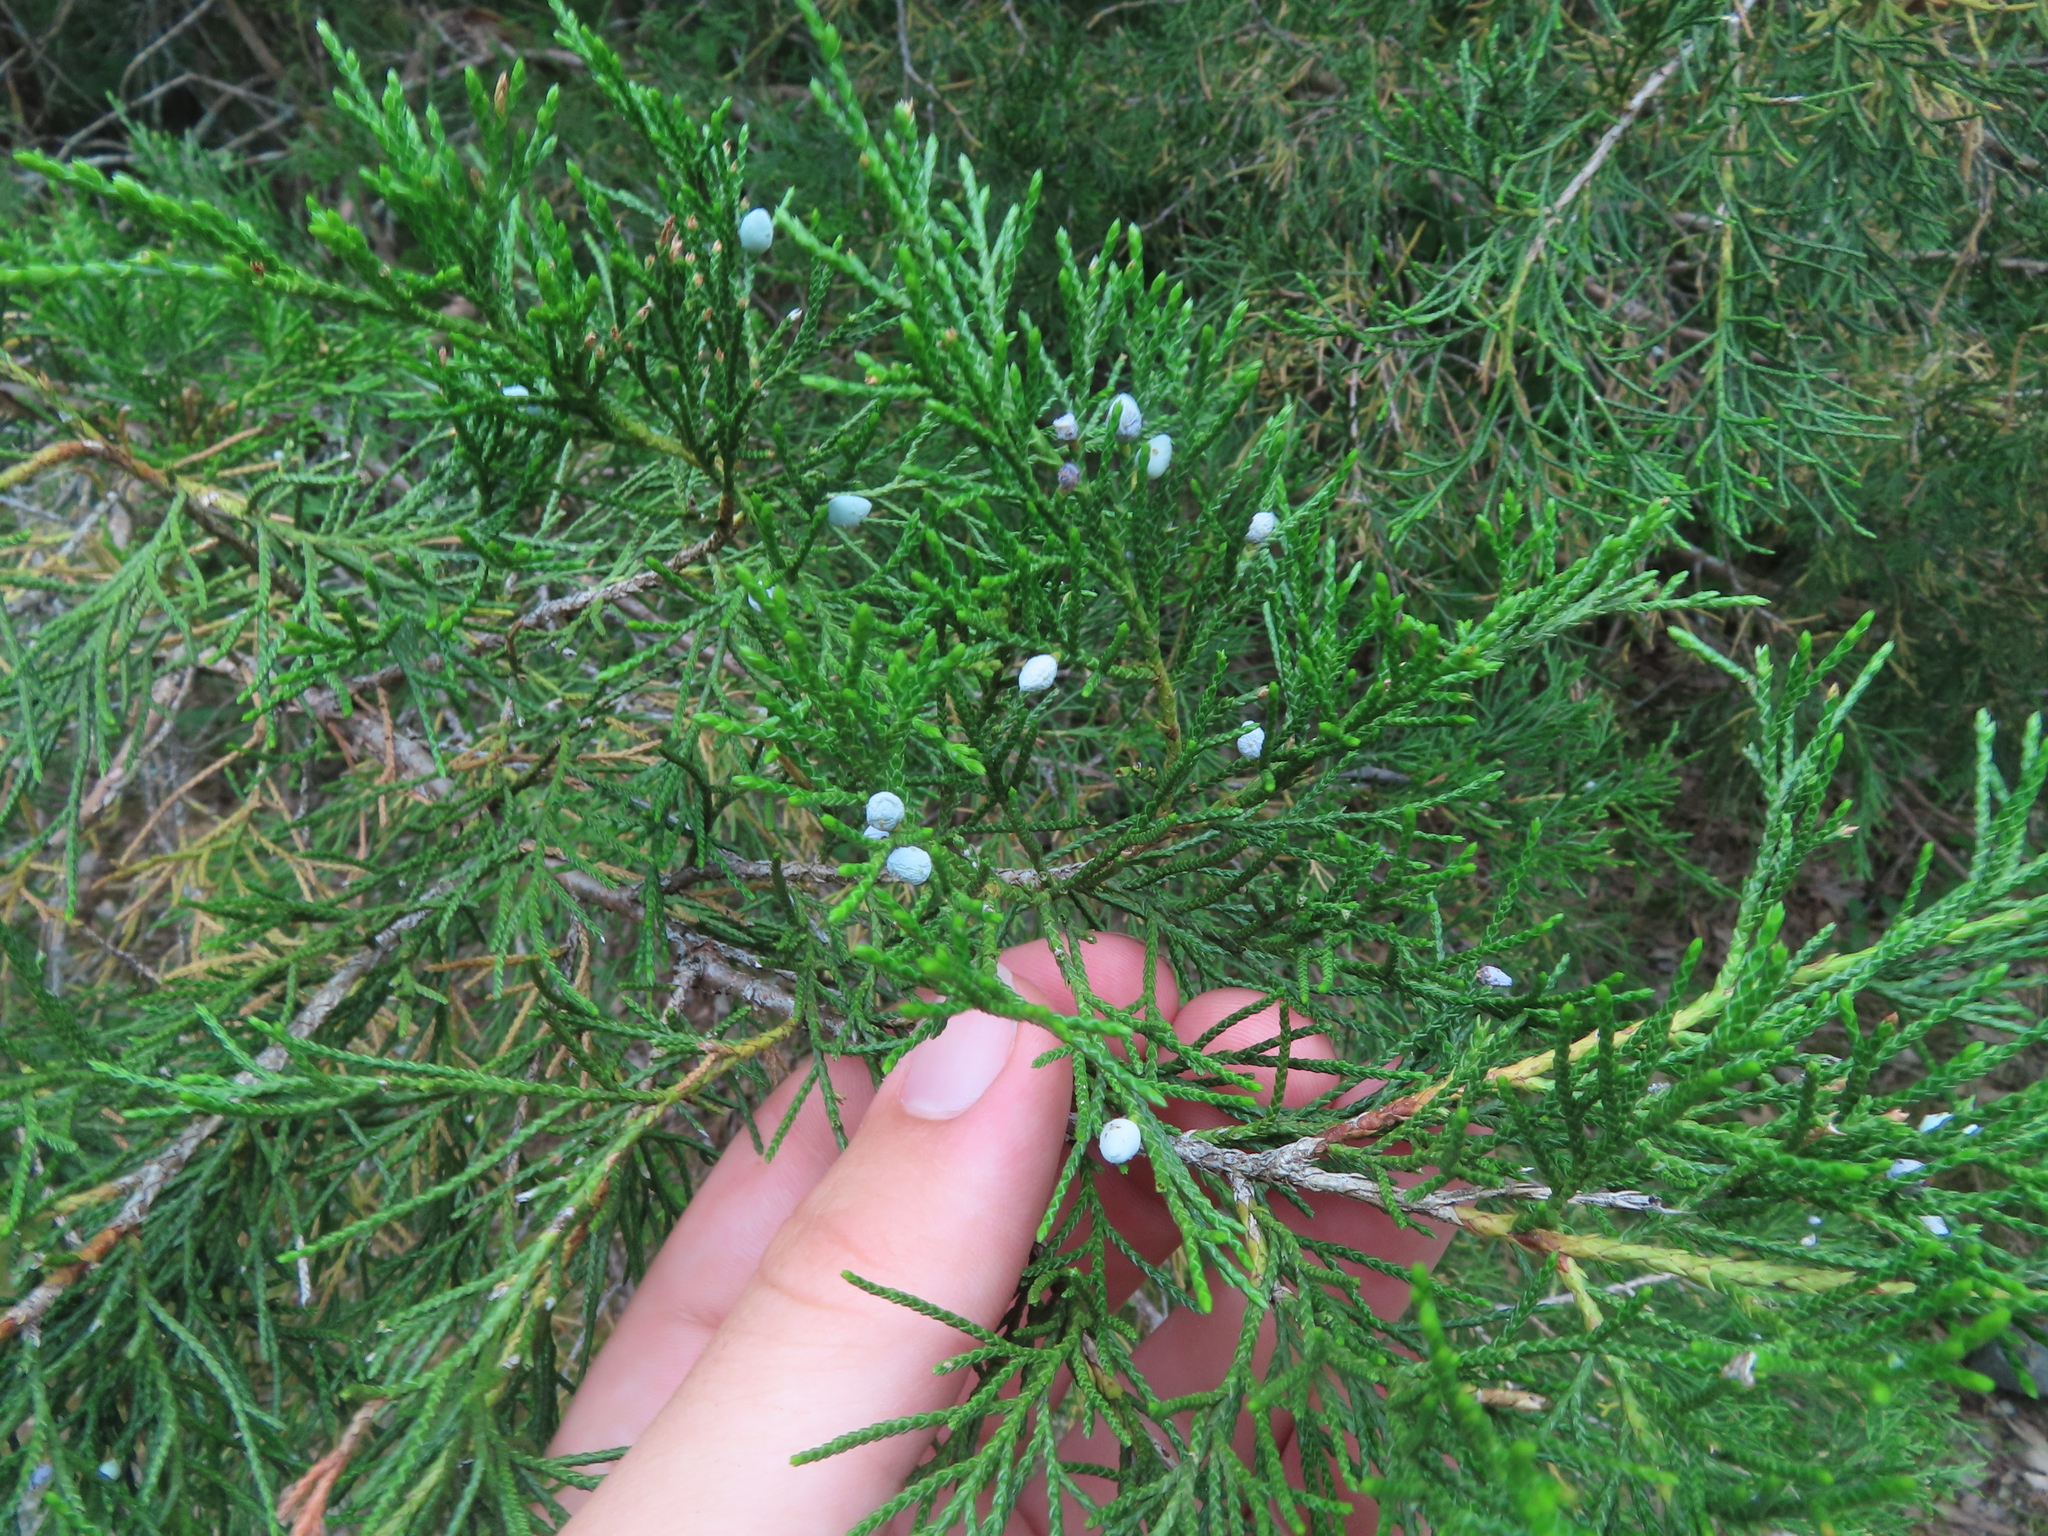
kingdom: Plantae
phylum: Tracheophyta
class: Pinopsida
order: Pinales
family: Cupressaceae
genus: Juniperus
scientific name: Juniperus virginiana
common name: Red juniper
